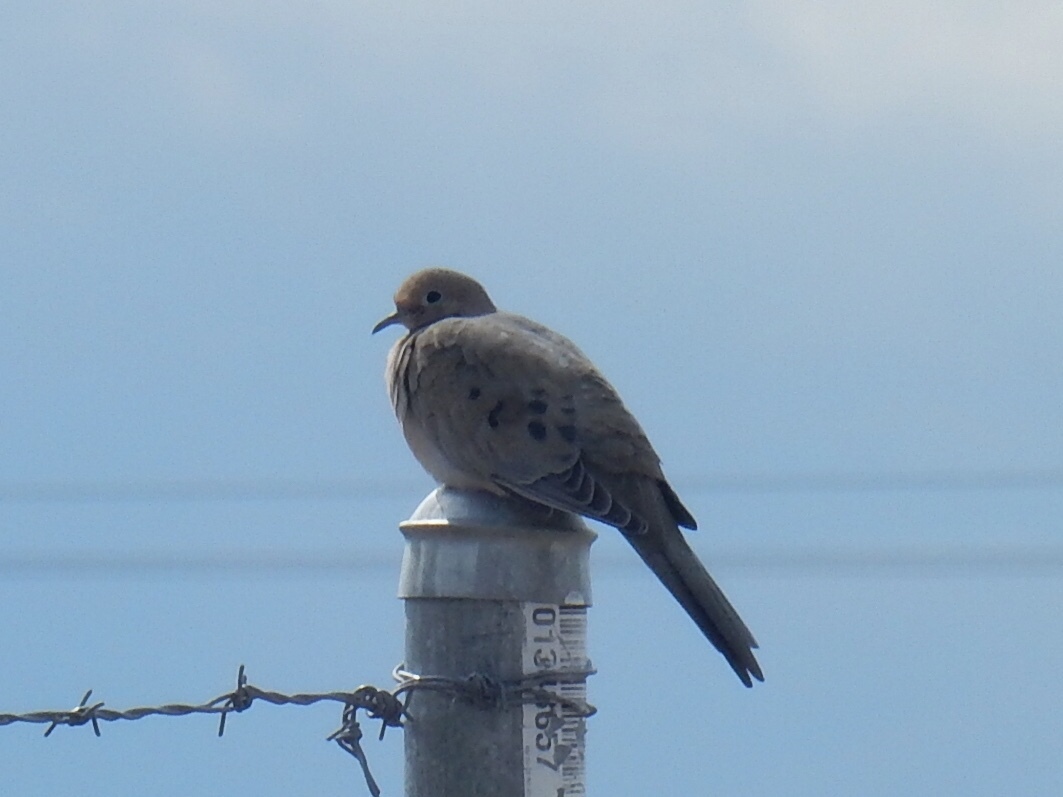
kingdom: Animalia
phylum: Chordata
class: Aves
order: Columbiformes
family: Columbidae
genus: Zenaida
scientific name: Zenaida macroura
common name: Mourning dove
